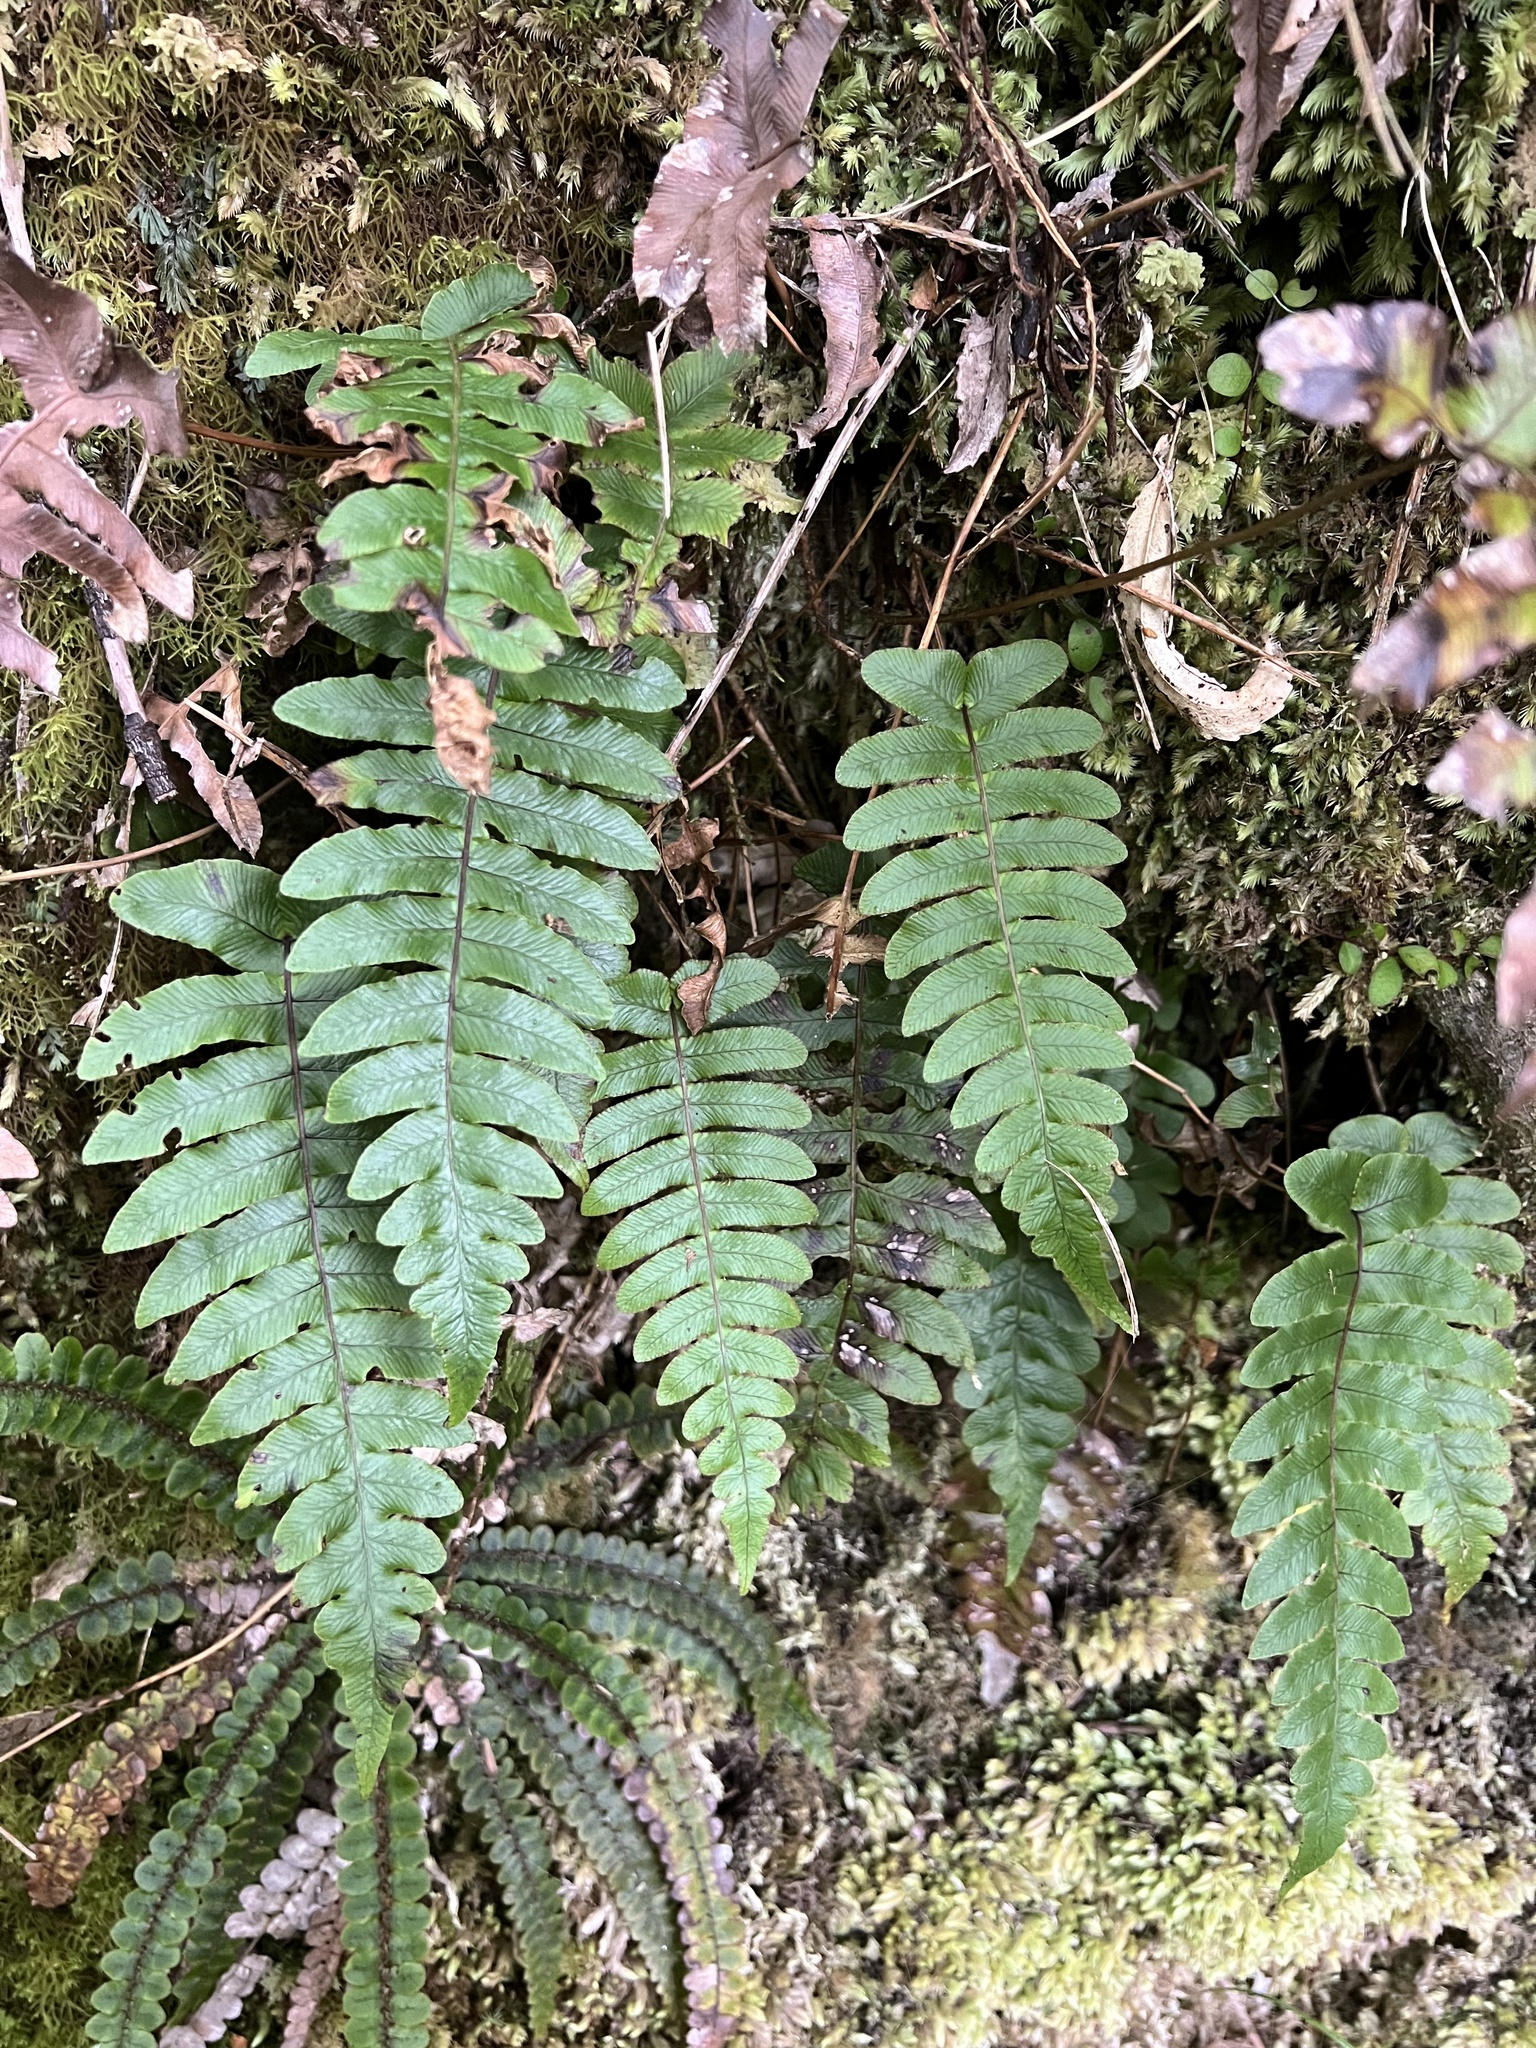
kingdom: Plantae
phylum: Tracheophyta
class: Polypodiopsida
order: Polypodiales
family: Blechnaceae
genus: Cranfillia
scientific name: Cranfillia deltoides
